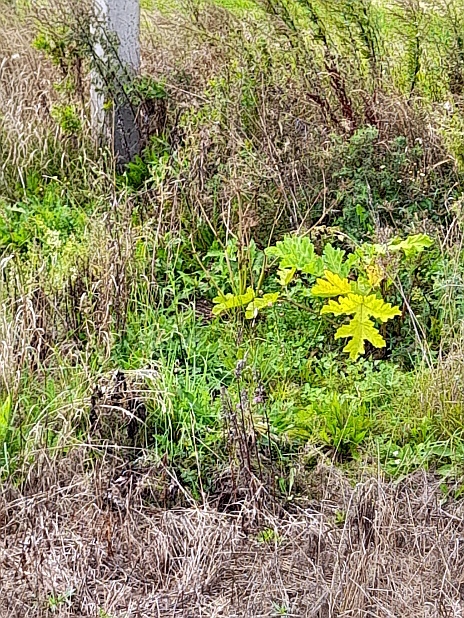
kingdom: Plantae
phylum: Tracheophyta
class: Magnoliopsida
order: Apiales
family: Apiaceae
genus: Heracleum
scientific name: Heracleum sosnowskyi
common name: Sosnowsky's hogweed
